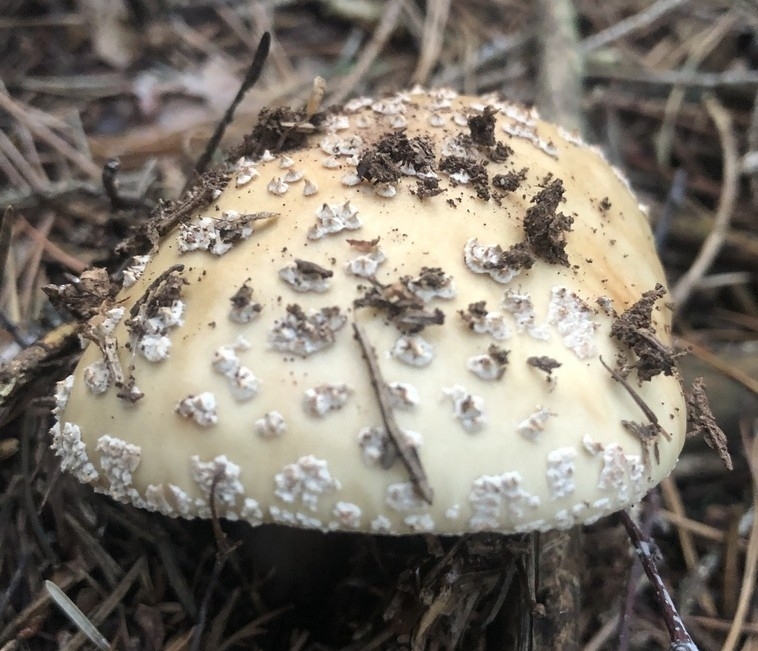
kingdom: Fungi
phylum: Basidiomycota
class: Agaricomycetes
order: Agaricales
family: Amanitaceae
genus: Amanita
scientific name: Amanita rubescens
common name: Blusher
